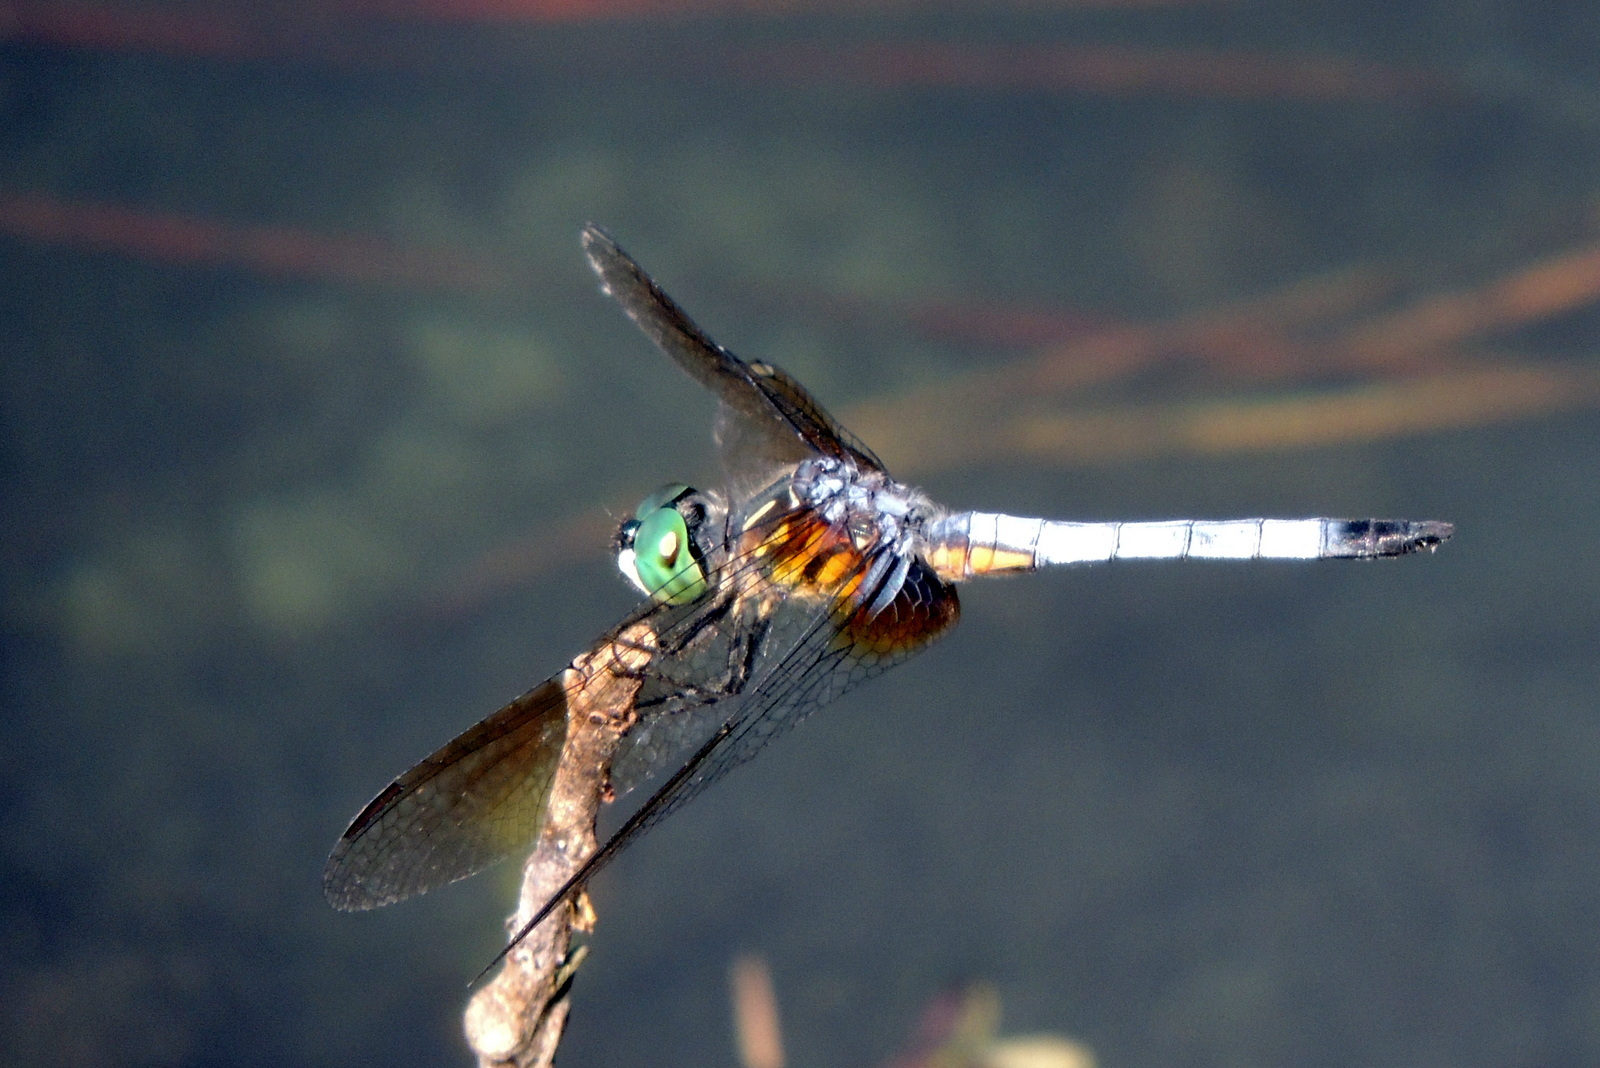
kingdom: Animalia
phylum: Arthropoda
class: Insecta
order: Odonata
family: Libellulidae
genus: Pachydiplax
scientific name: Pachydiplax longipennis
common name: Blue dasher
